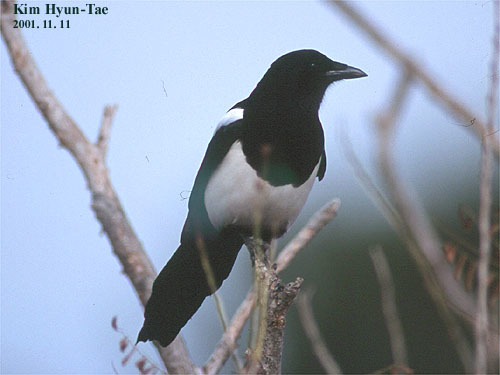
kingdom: Animalia
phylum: Chordata
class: Aves
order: Passeriformes
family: Corvidae
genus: Pica
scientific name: Pica serica
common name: Oriental magpie
